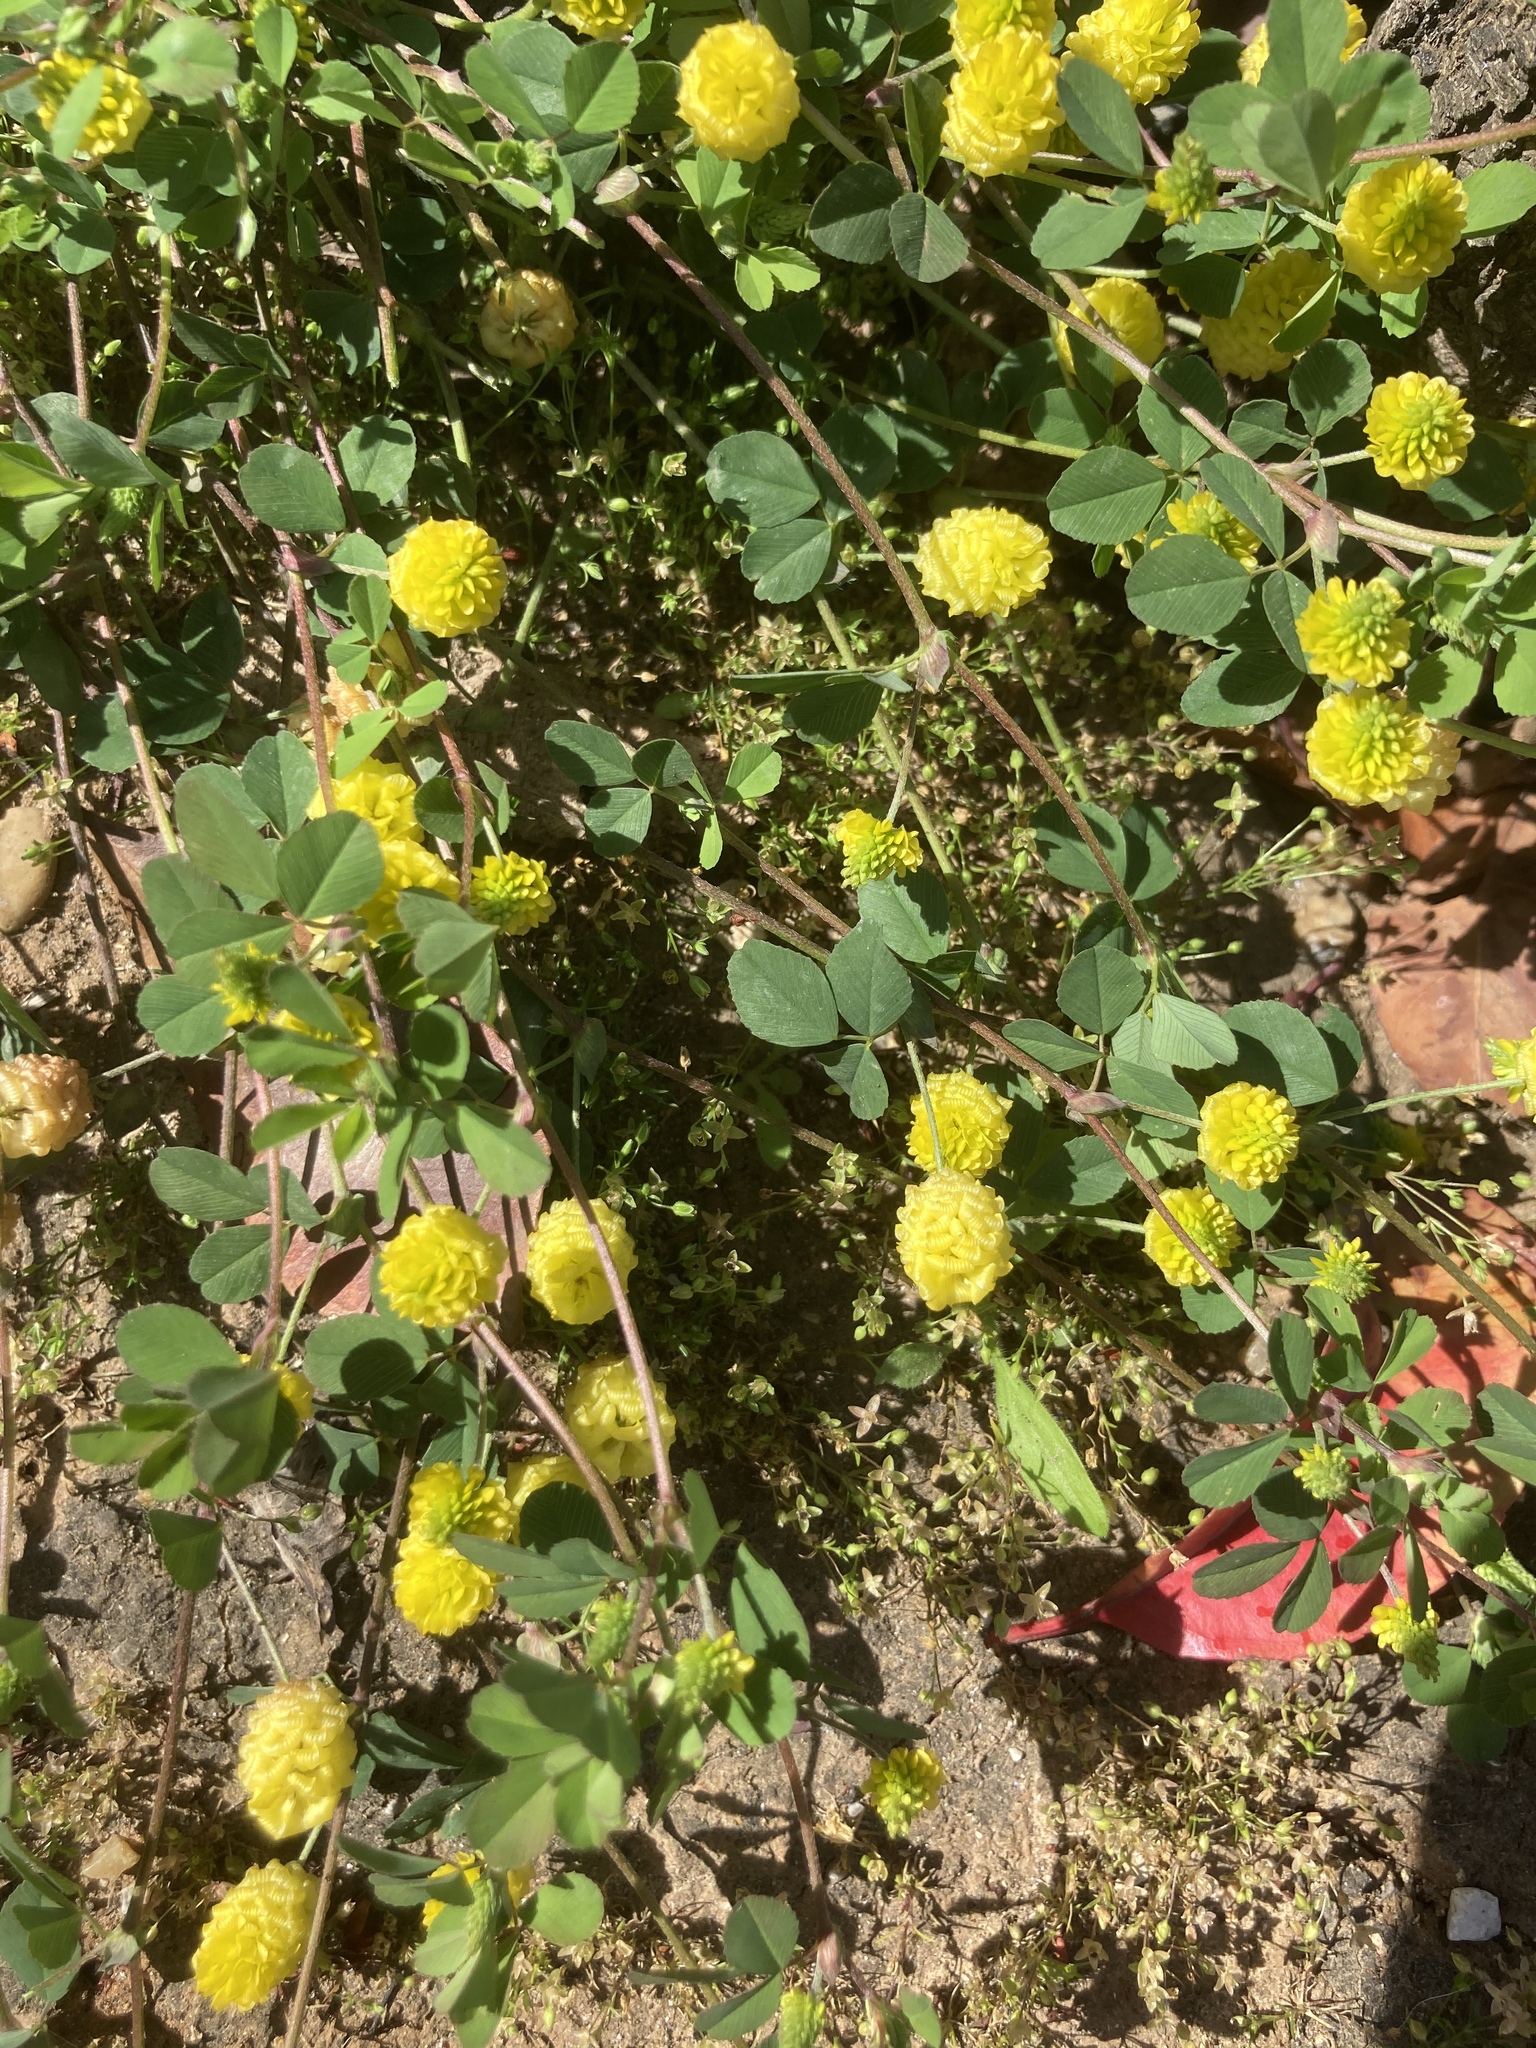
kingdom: Plantae
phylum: Tracheophyta
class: Magnoliopsida
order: Fabales
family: Fabaceae
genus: Trifolium
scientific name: Trifolium campestre
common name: Field clover
